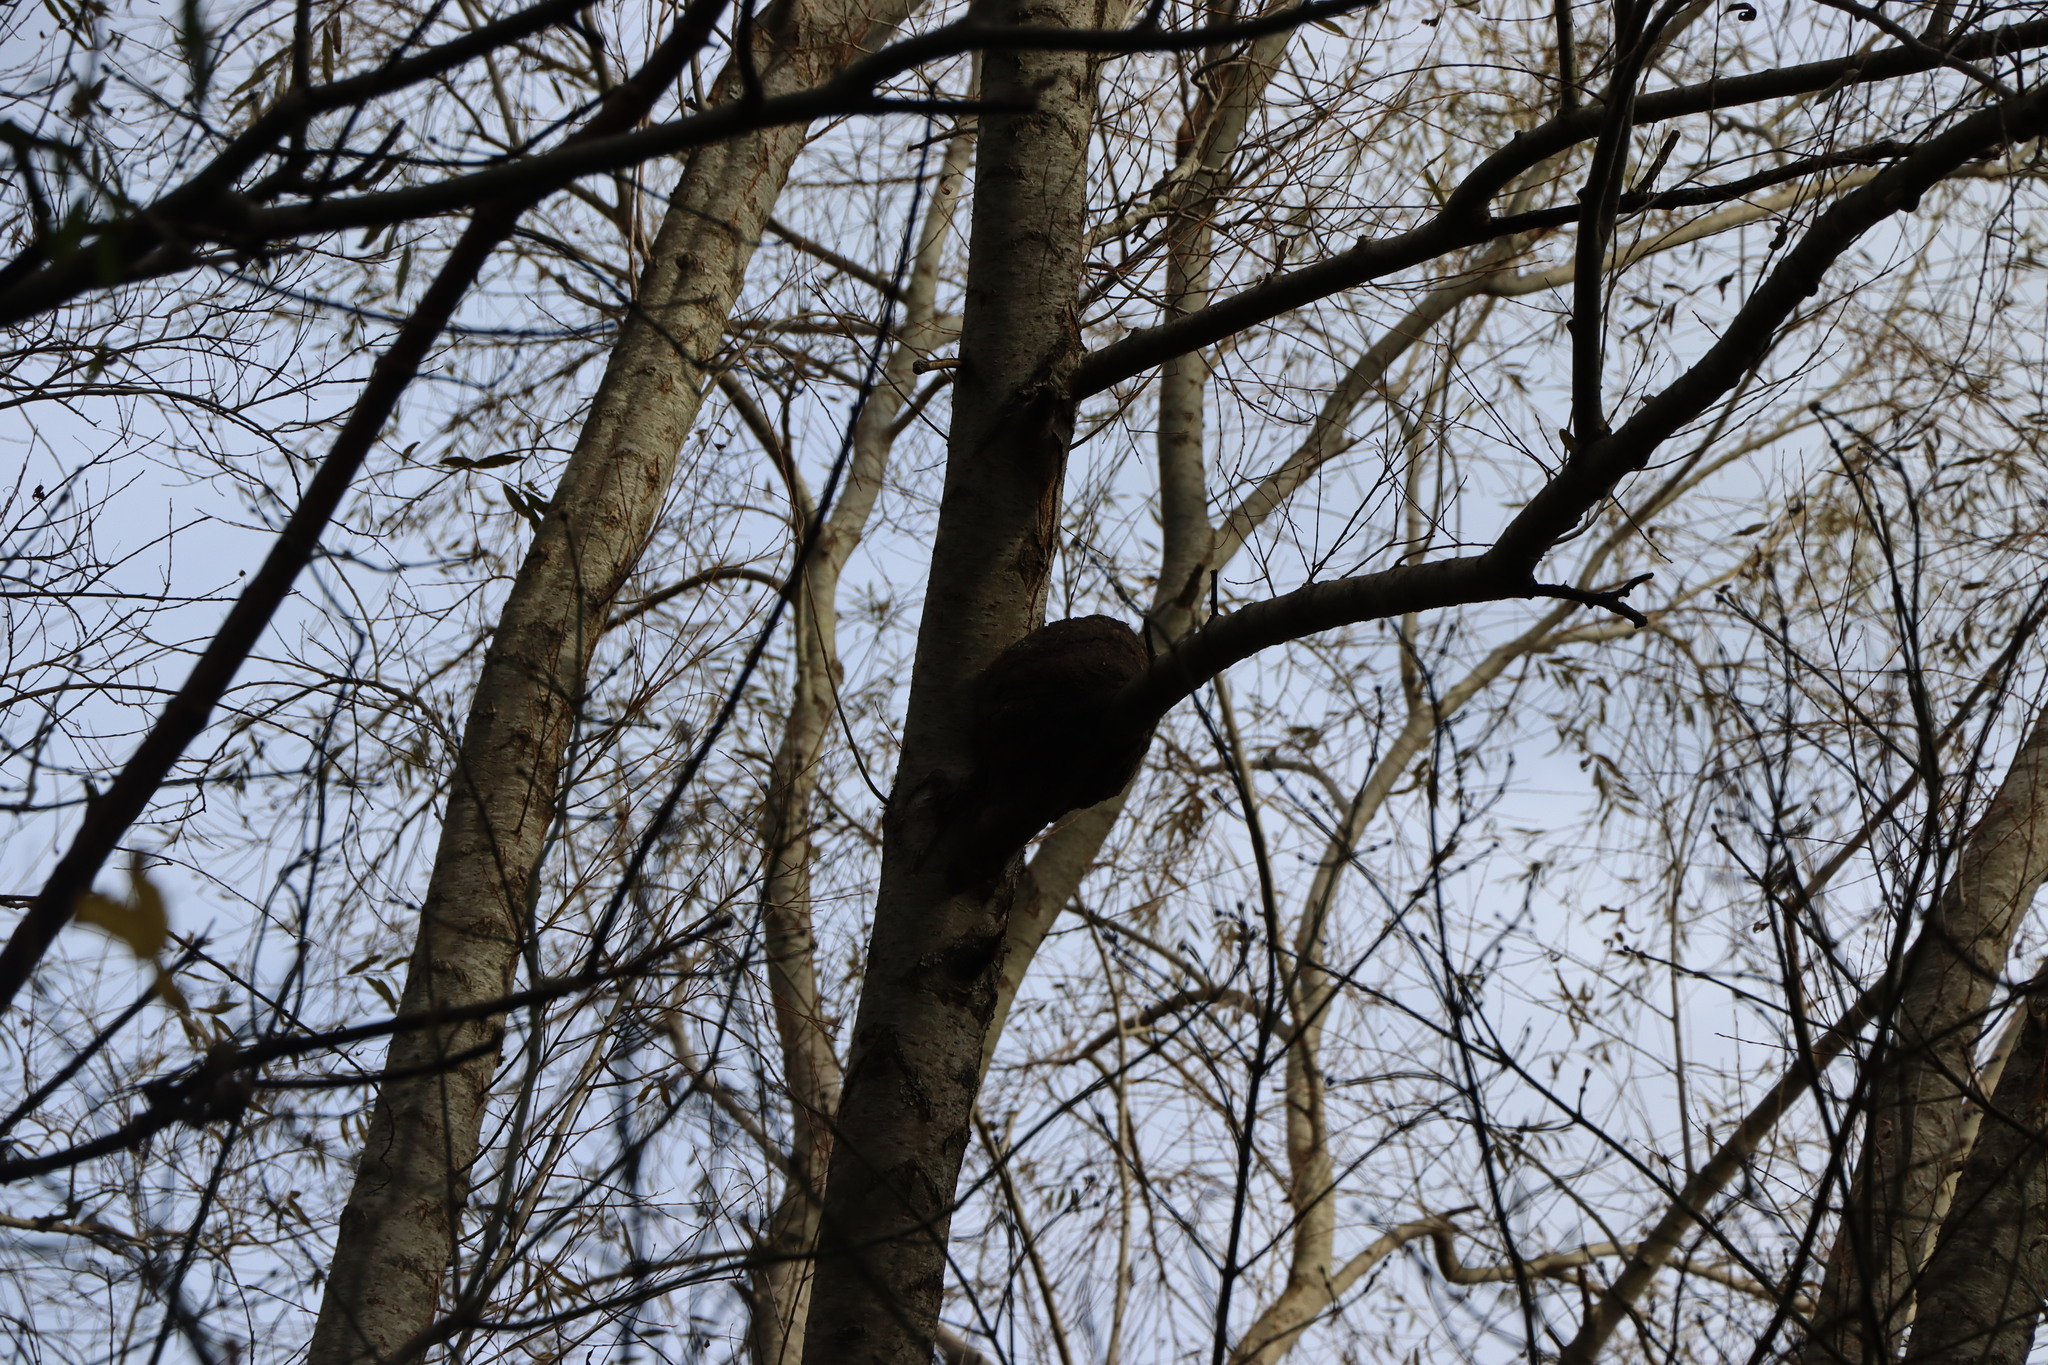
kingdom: Animalia
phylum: Chordata
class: Aves
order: Passeriformes
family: Furnariidae
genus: Furnarius
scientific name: Furnarius rufus
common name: Rufous hornero
